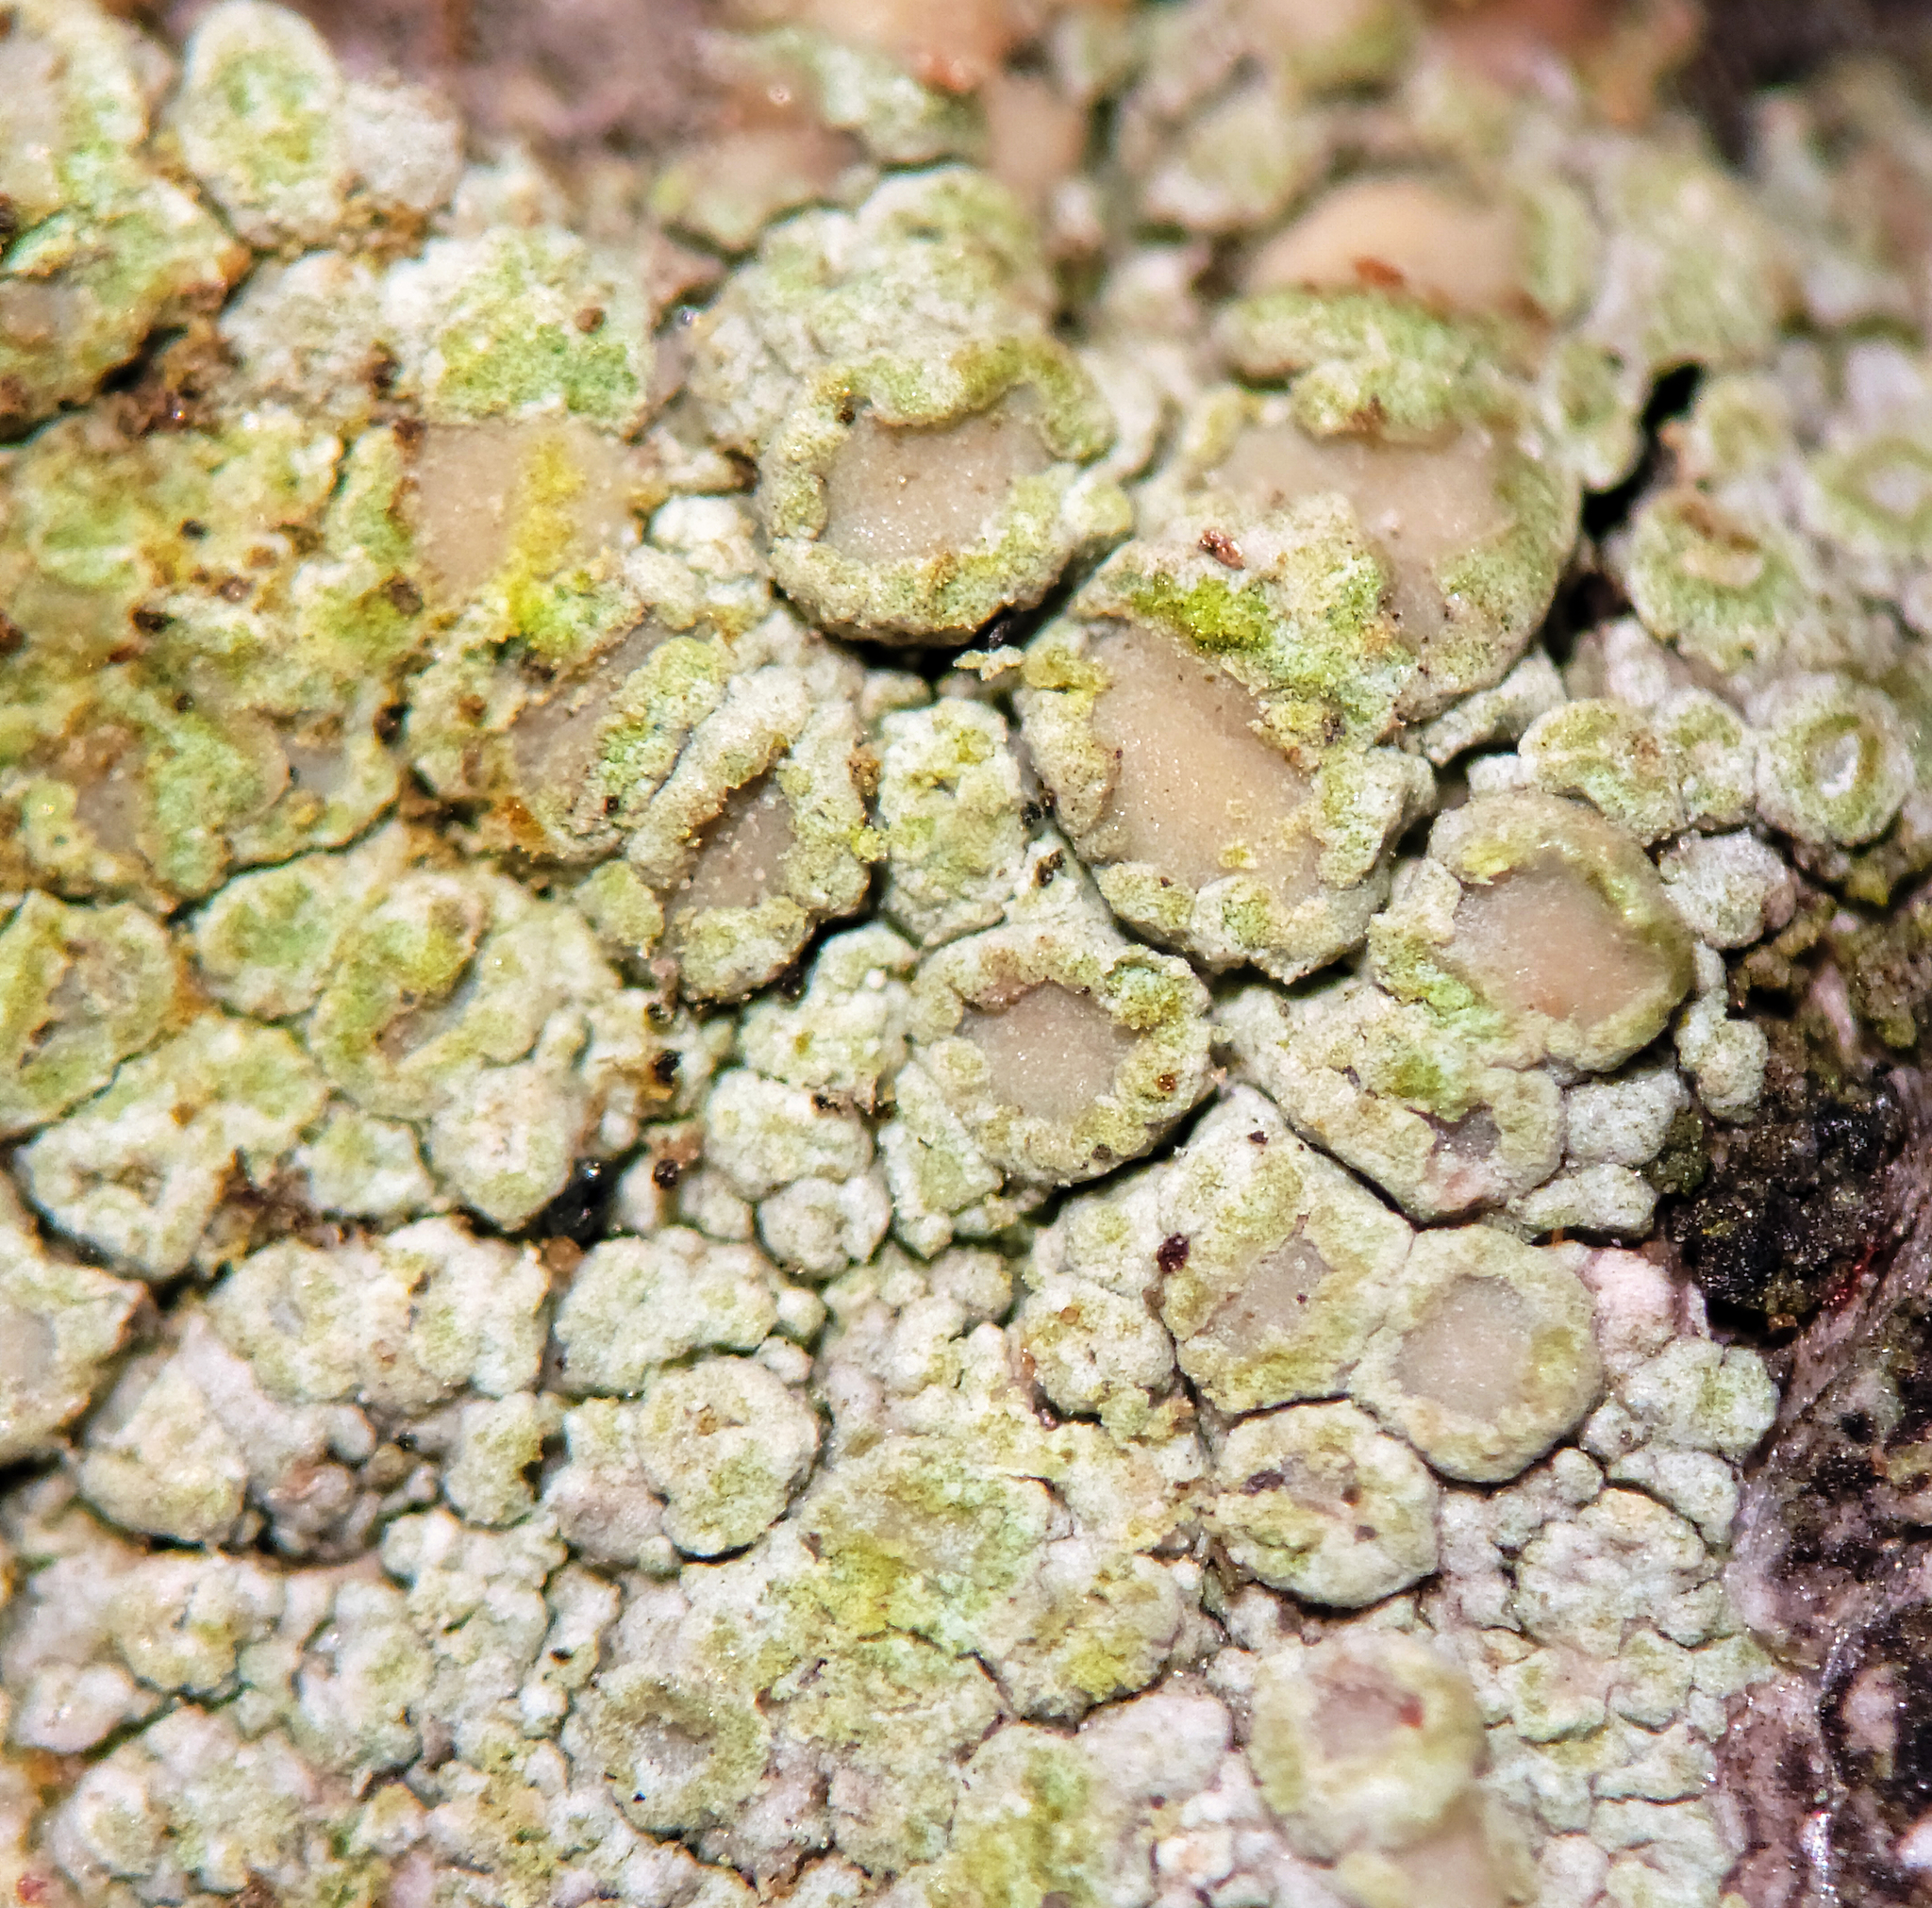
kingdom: Fungi
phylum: Ascomycota
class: Lecanoromycetes
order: Lecanorales
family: Lecanoraceae
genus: Lecanora
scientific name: Lecanora strobilina
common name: Mealy rim-lichen
